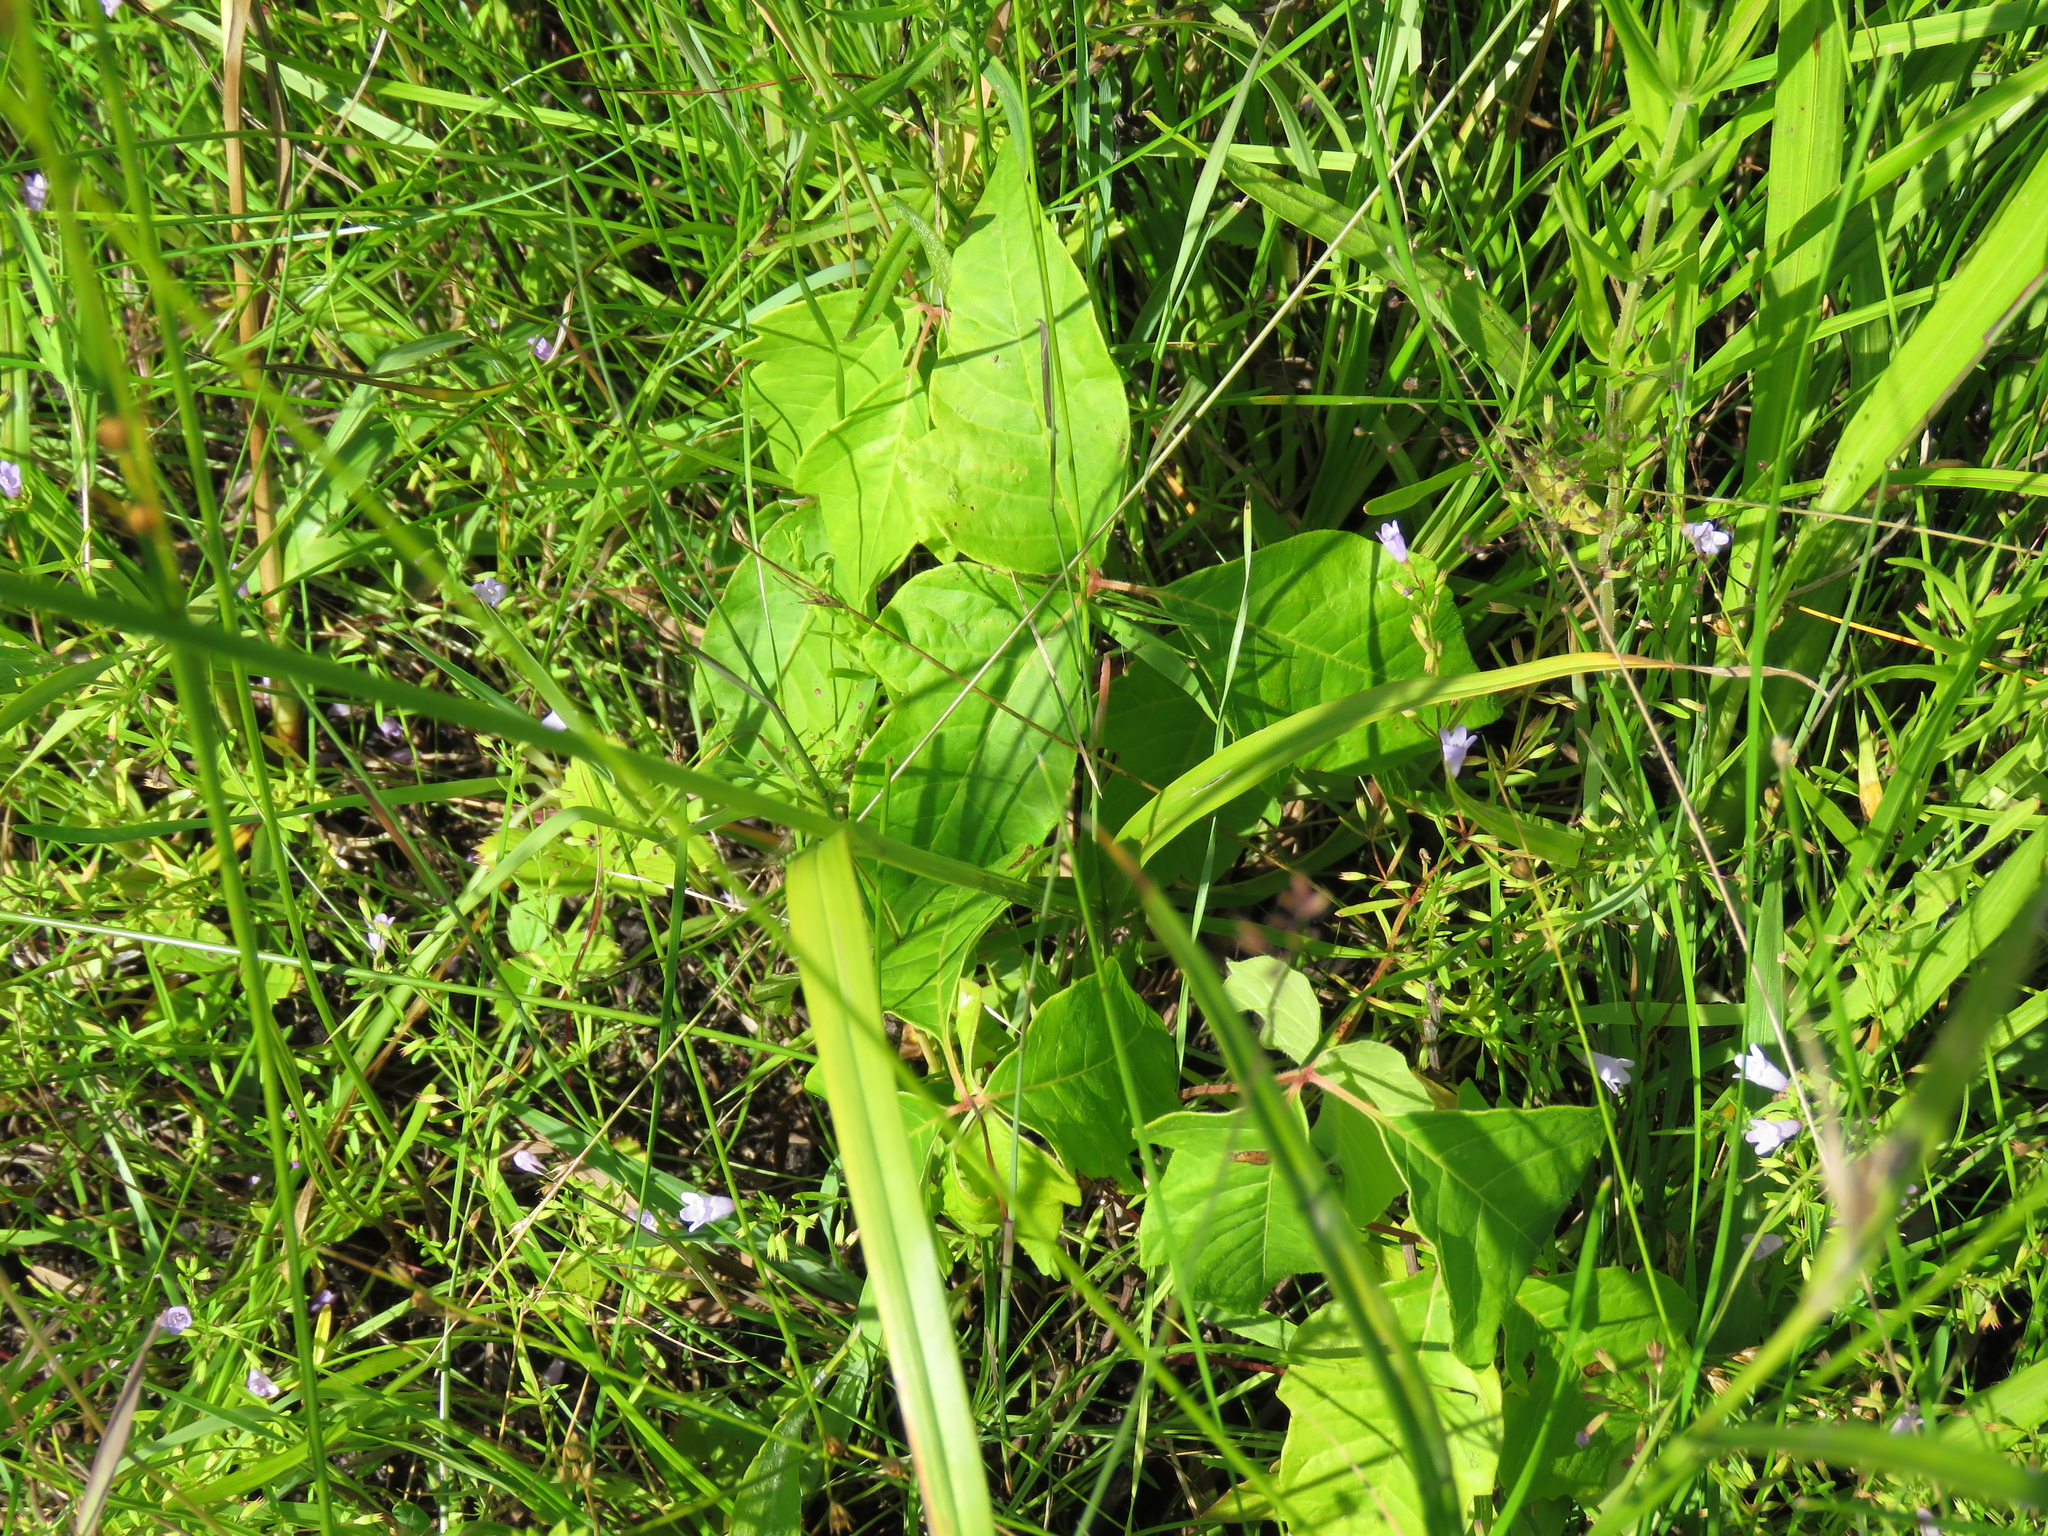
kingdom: Plantae
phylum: Tracheophyta
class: Magnoliopsida
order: Sapindales
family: Anacardiaceae
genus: Toxicodendron
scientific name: Toxicodendron radicans
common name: Poison ivy
